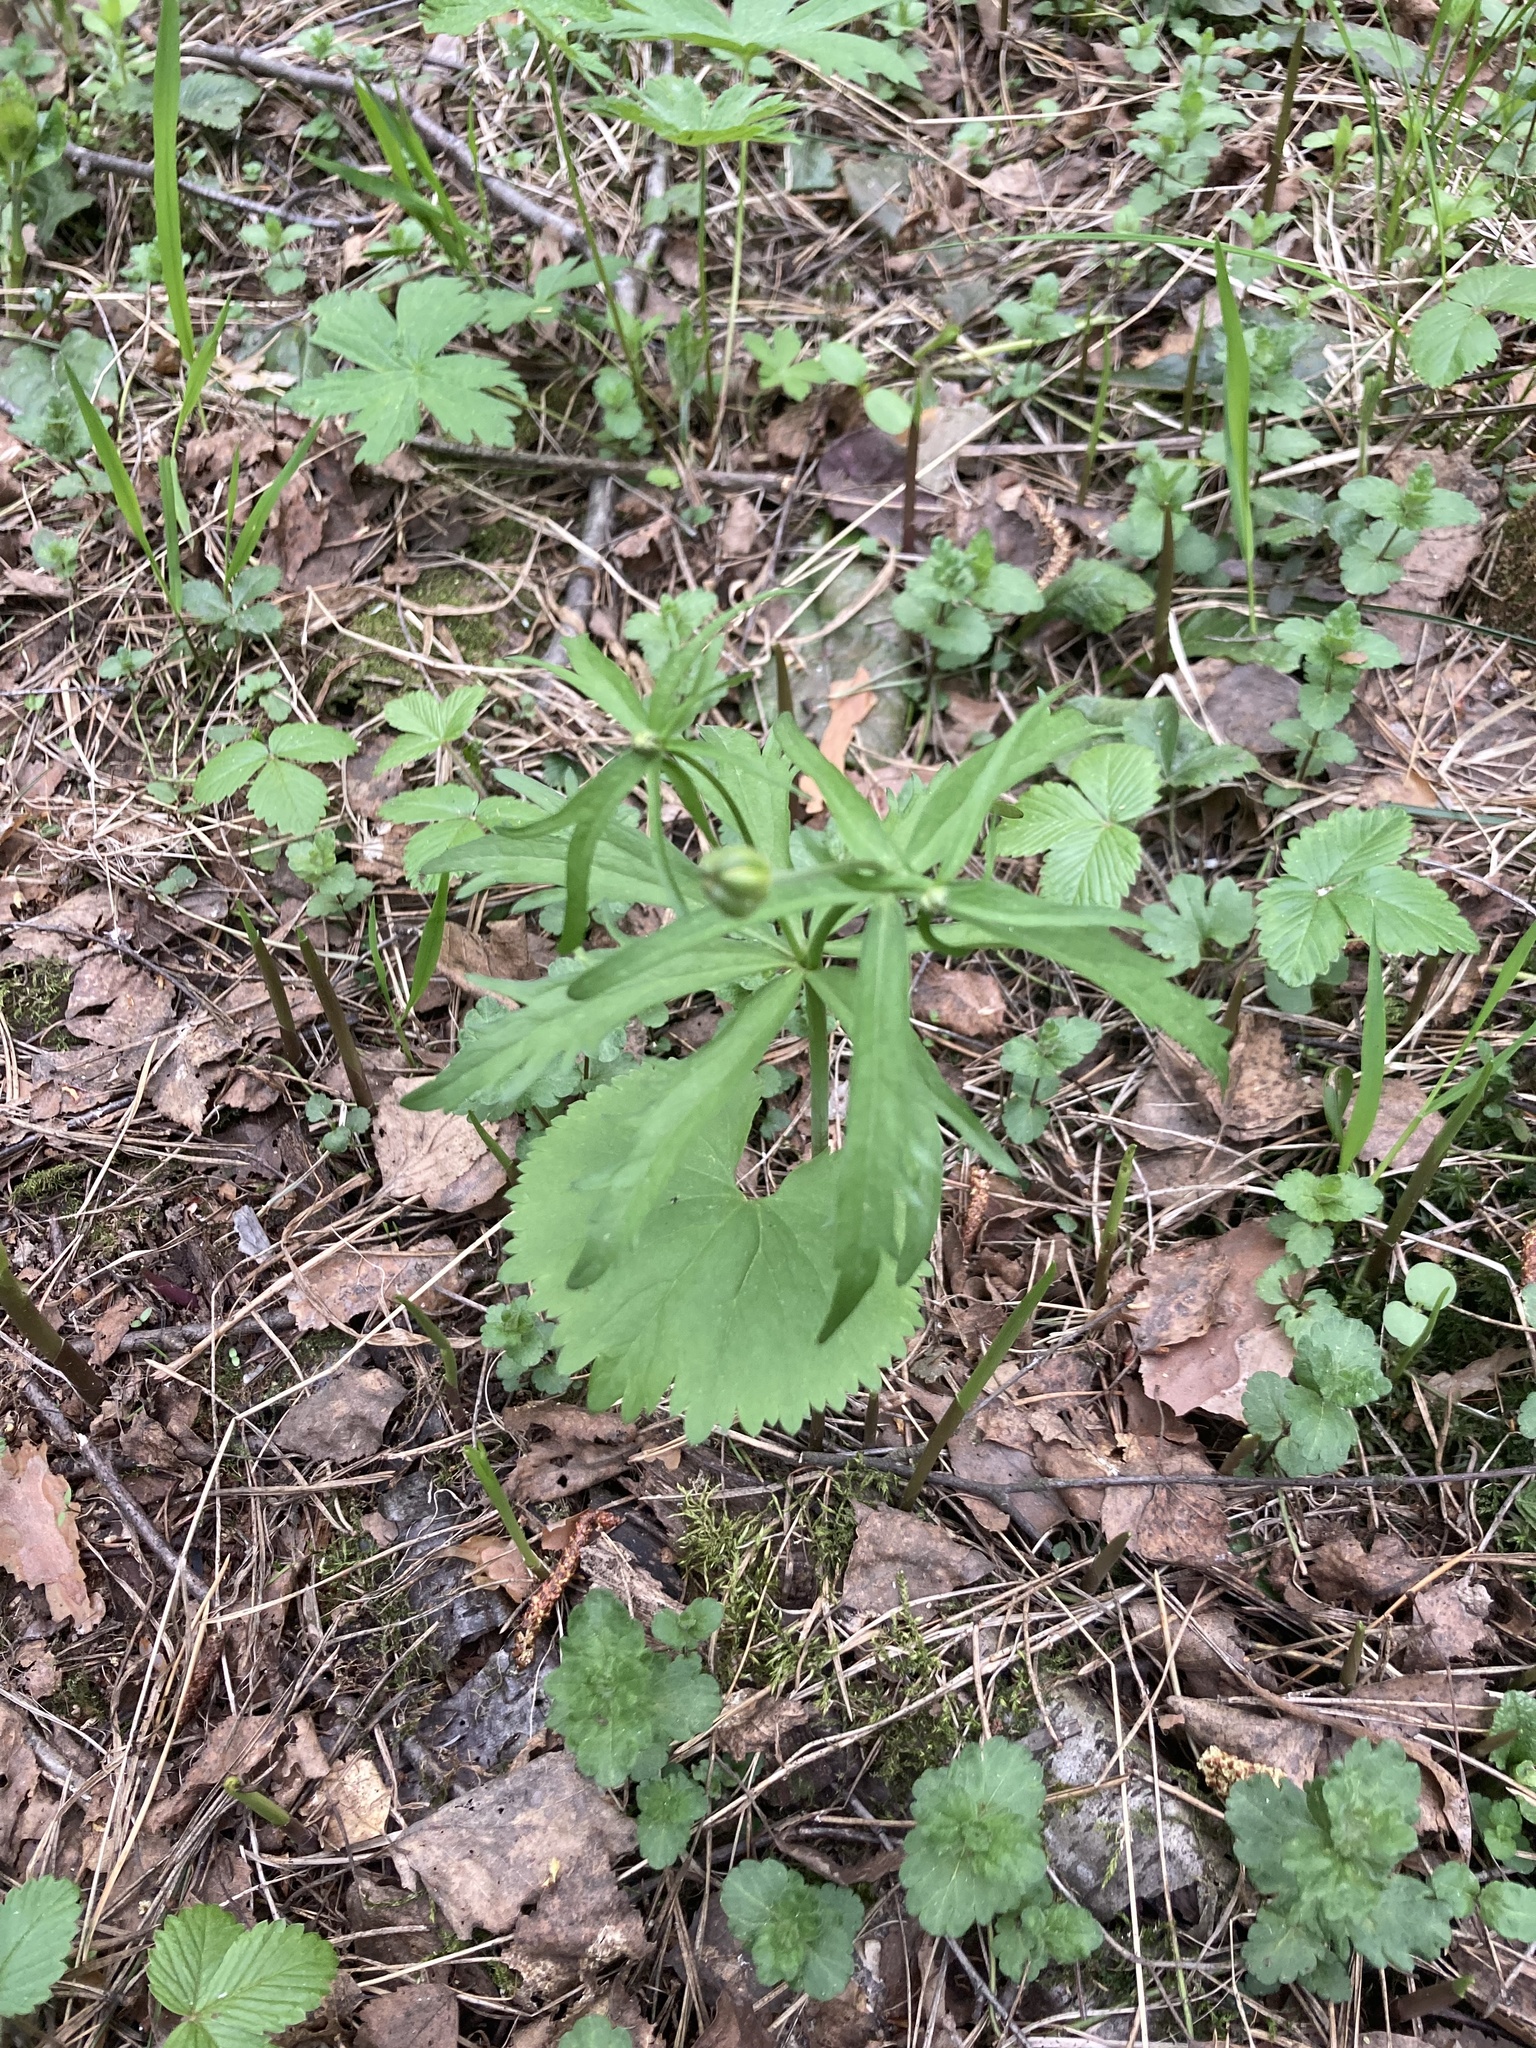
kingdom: Plantae
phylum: Tracheophyta
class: Magnoliopsida
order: Ranunculales
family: Ranunculaceae
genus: Ranunculus
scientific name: Ranunculus cassubicus
